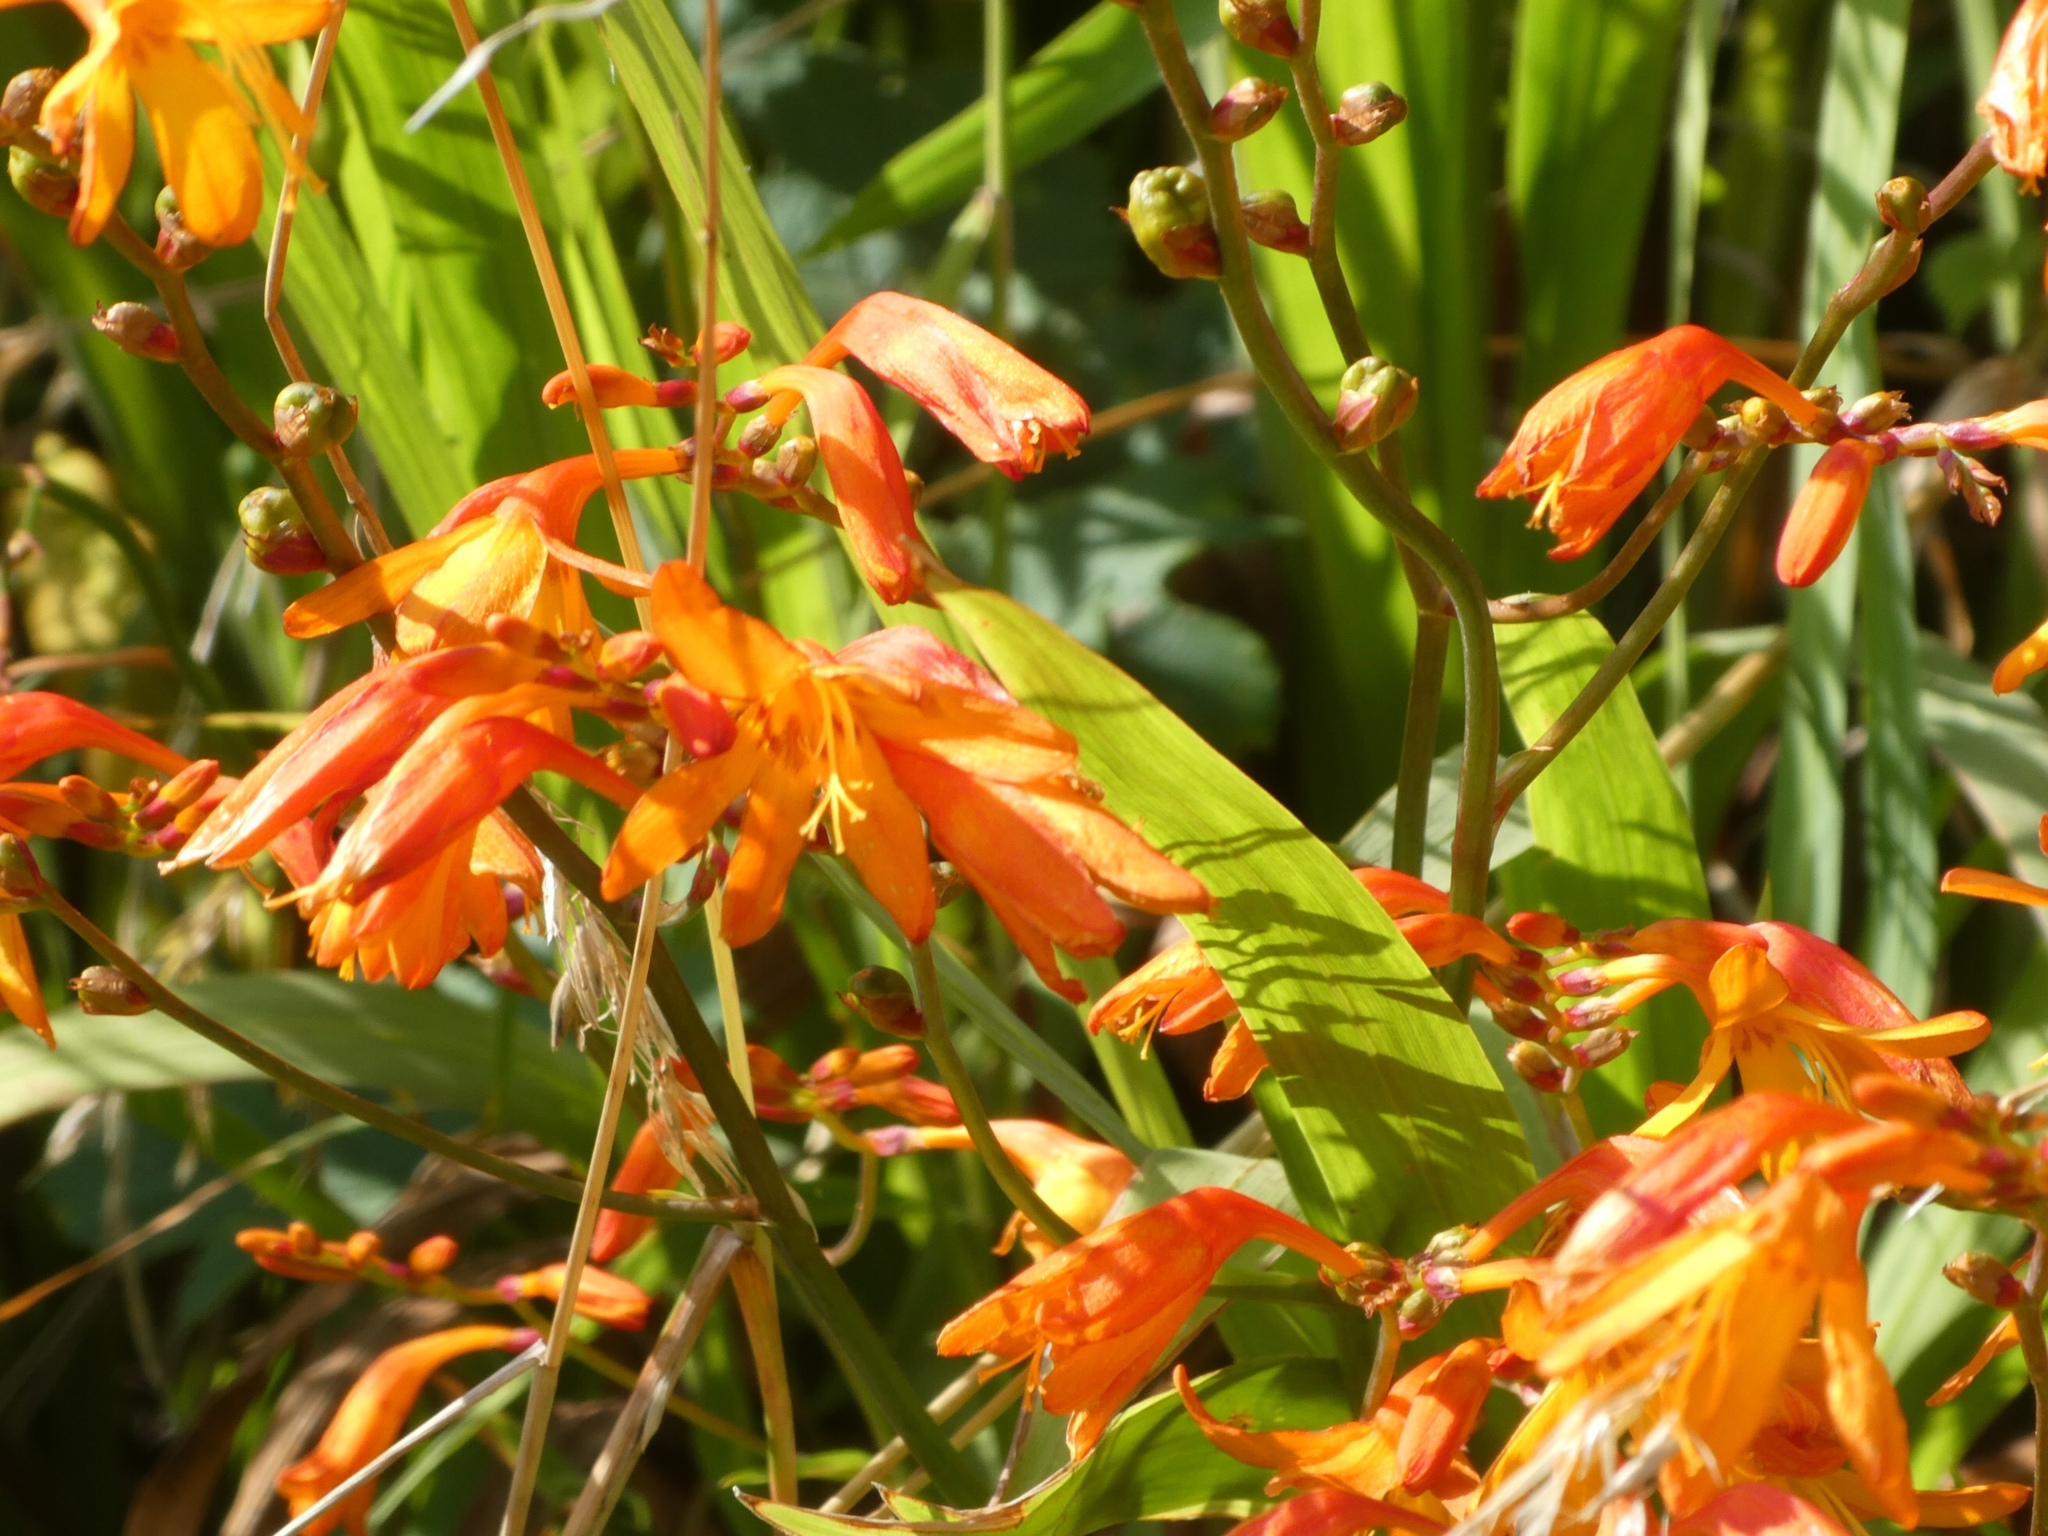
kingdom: Plantae
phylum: Tracheophyta
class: Liliopsida
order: Asparagales
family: Iridaceae
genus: Crocosmia
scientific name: Crocosmia crocosmiiflora
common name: Montbretia
